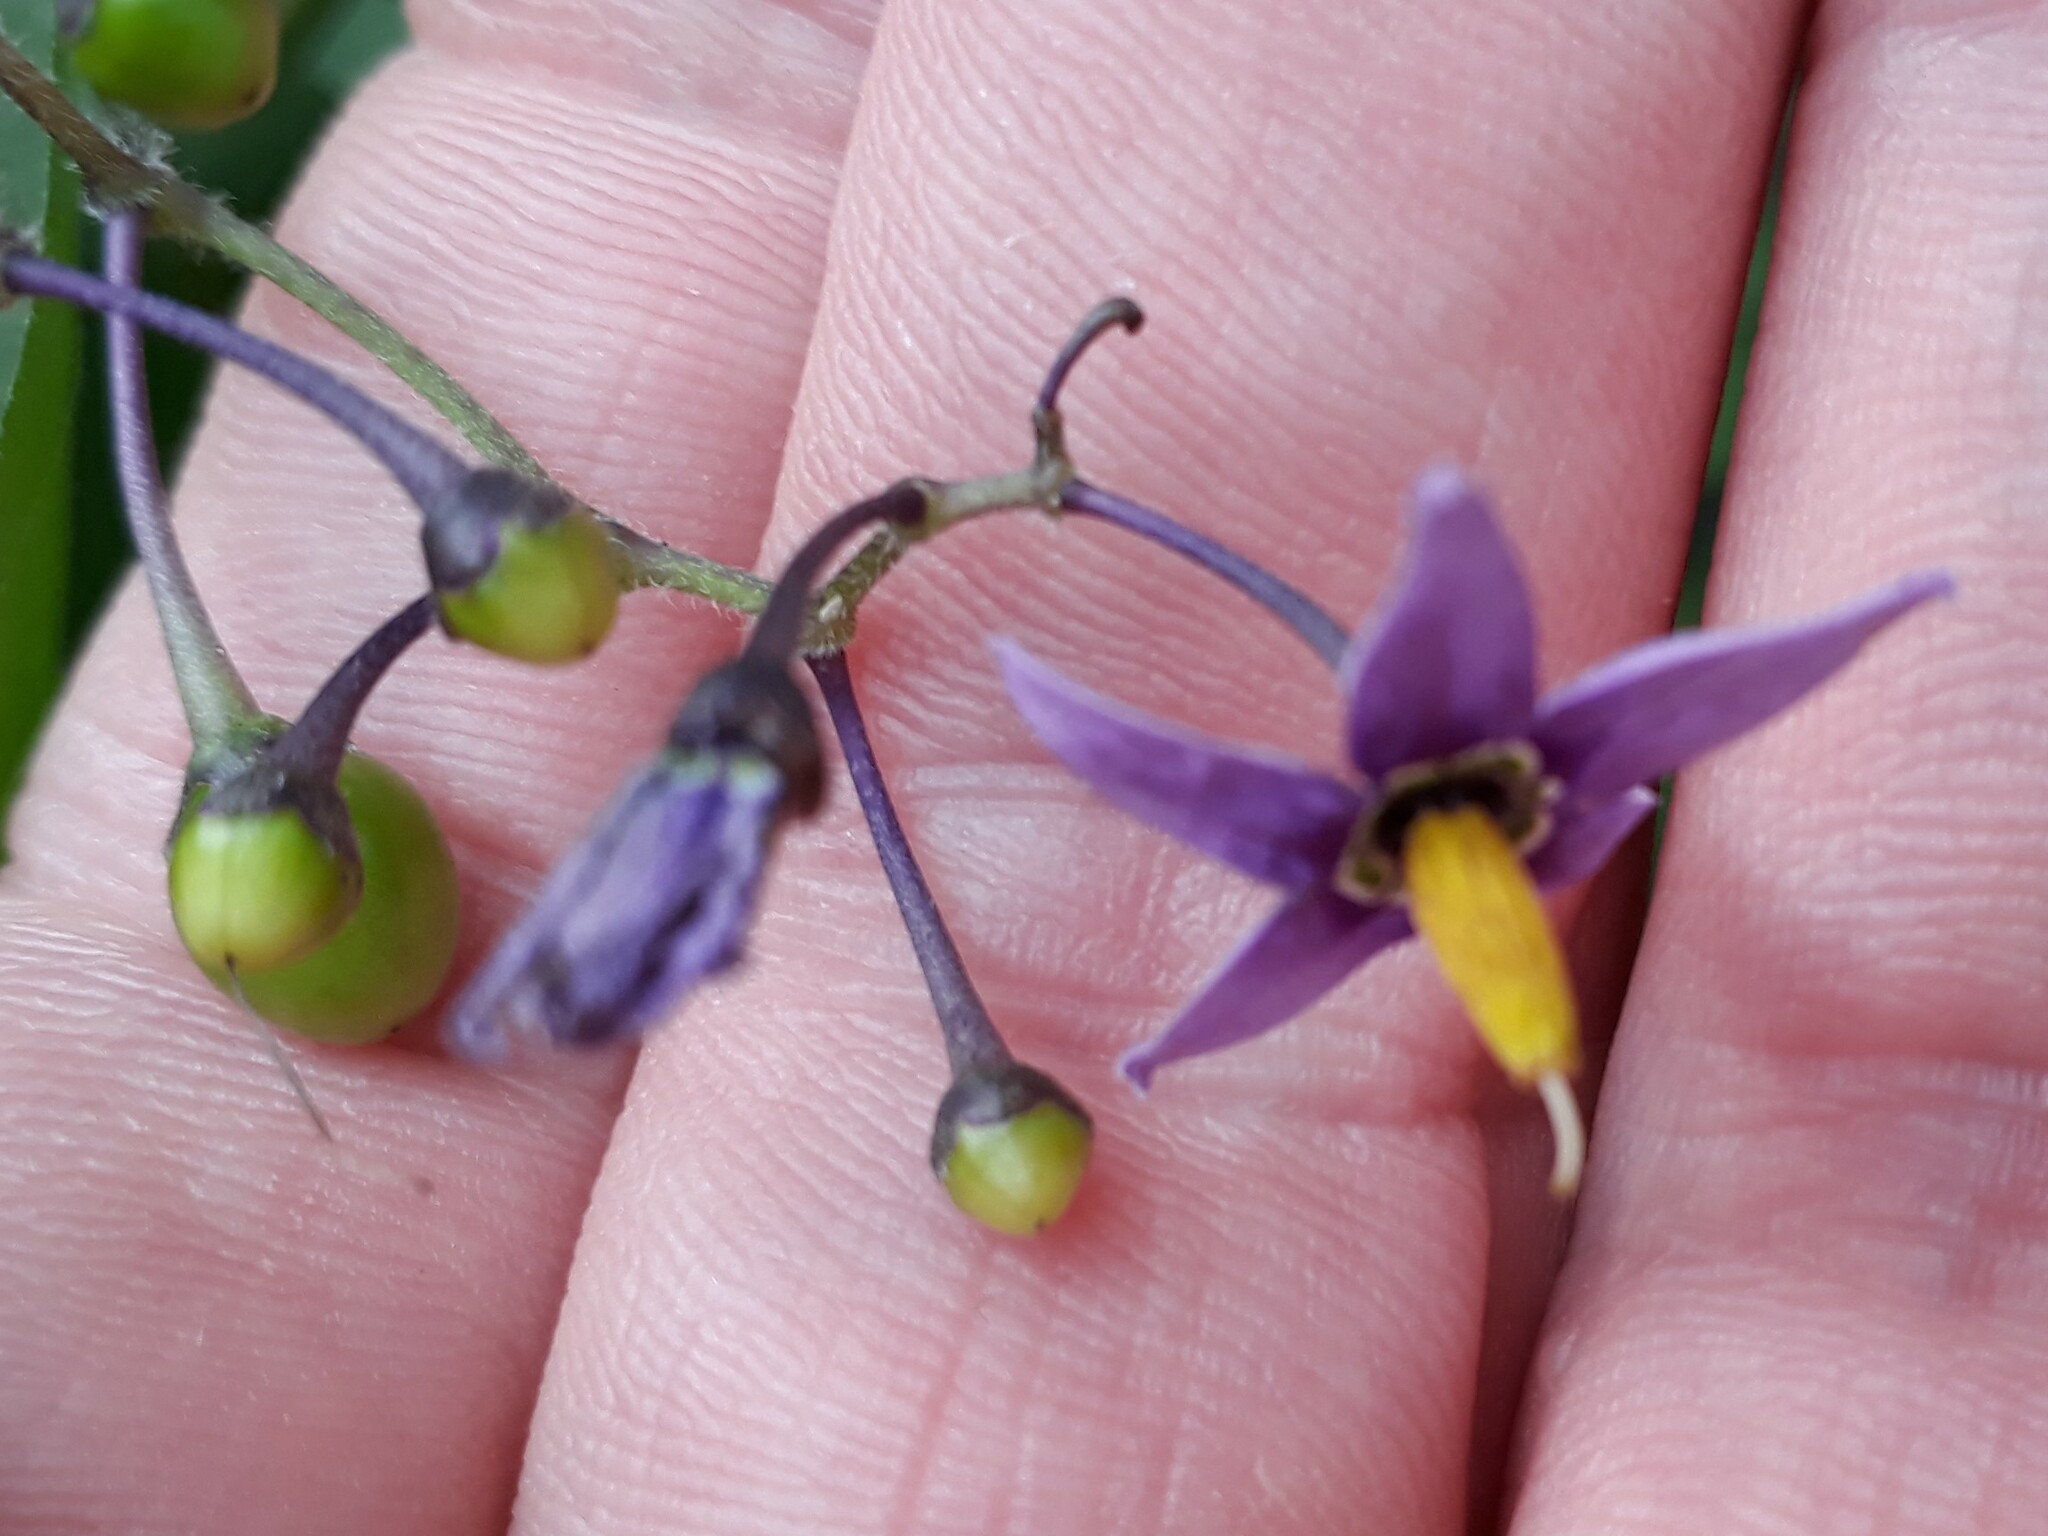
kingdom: Plantae
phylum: Tracheophyta
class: Magnoliopsida
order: Solanales
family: Solanaceae
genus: Solanum
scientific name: Solanum dulcamara
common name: Climbing nightshade
